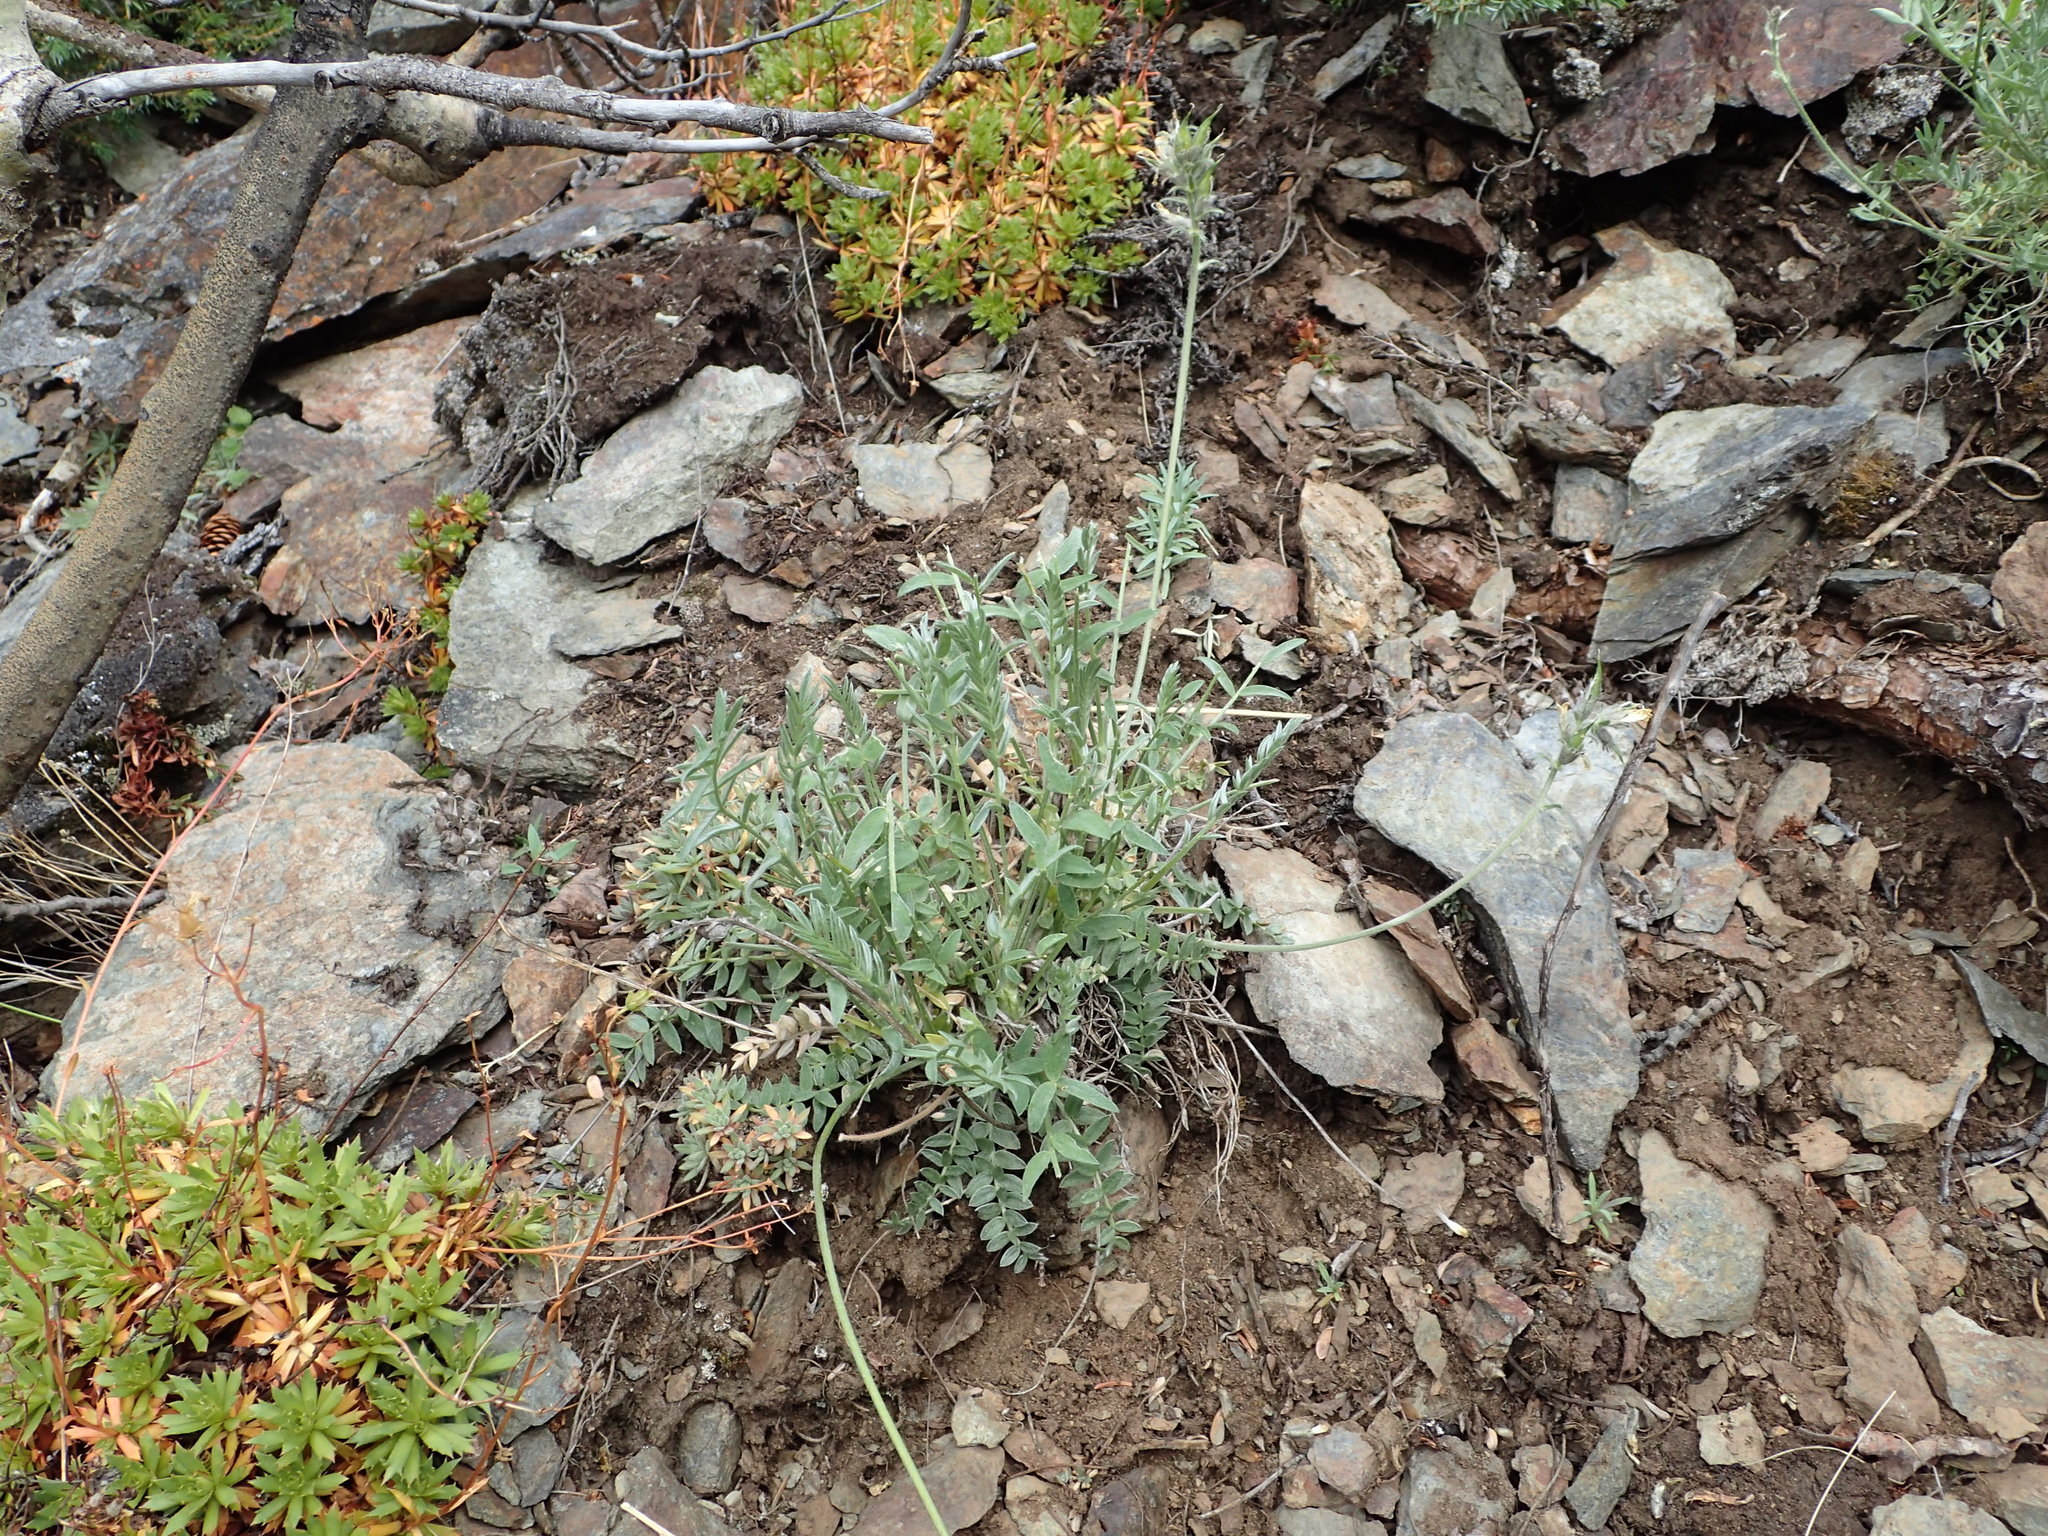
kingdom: Plantae
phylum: Tracheophyta
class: Magnoliopsida
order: Fabales
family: Fabaceae
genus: Oxytropis
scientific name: Oxytropis campestris
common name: Field locoweed
